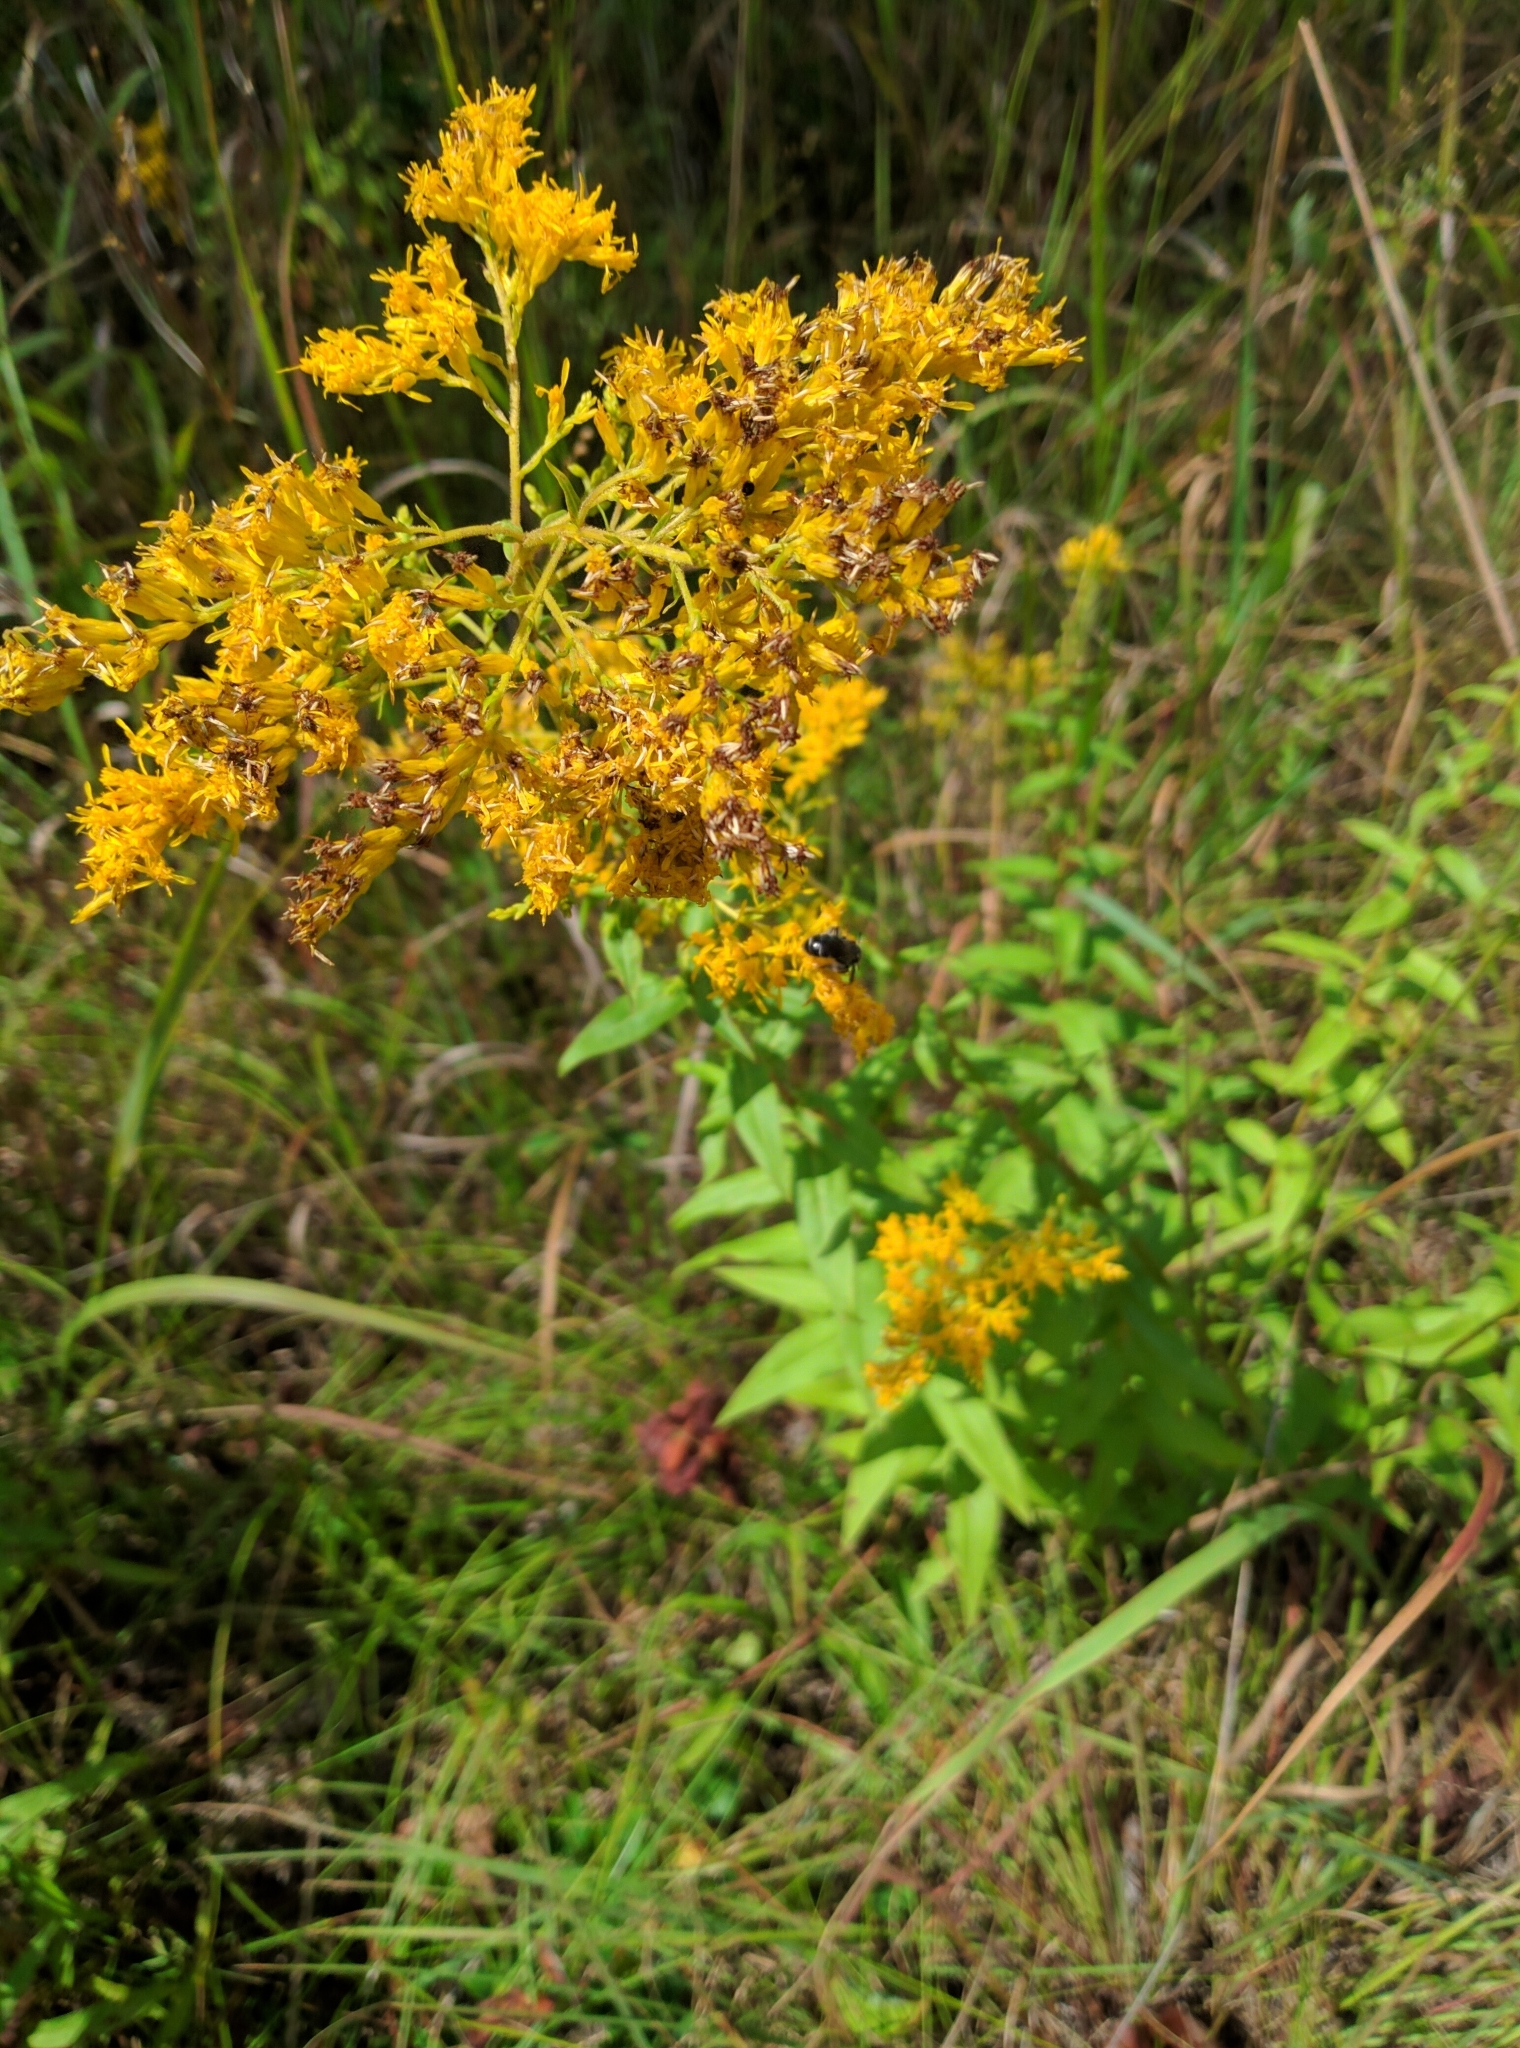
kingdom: Plantae
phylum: Tracheophyta
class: Magnoliopsida
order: Asterales
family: Asteraceae
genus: Solidago
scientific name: Solidago odora
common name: Anise-scented goldenrod
